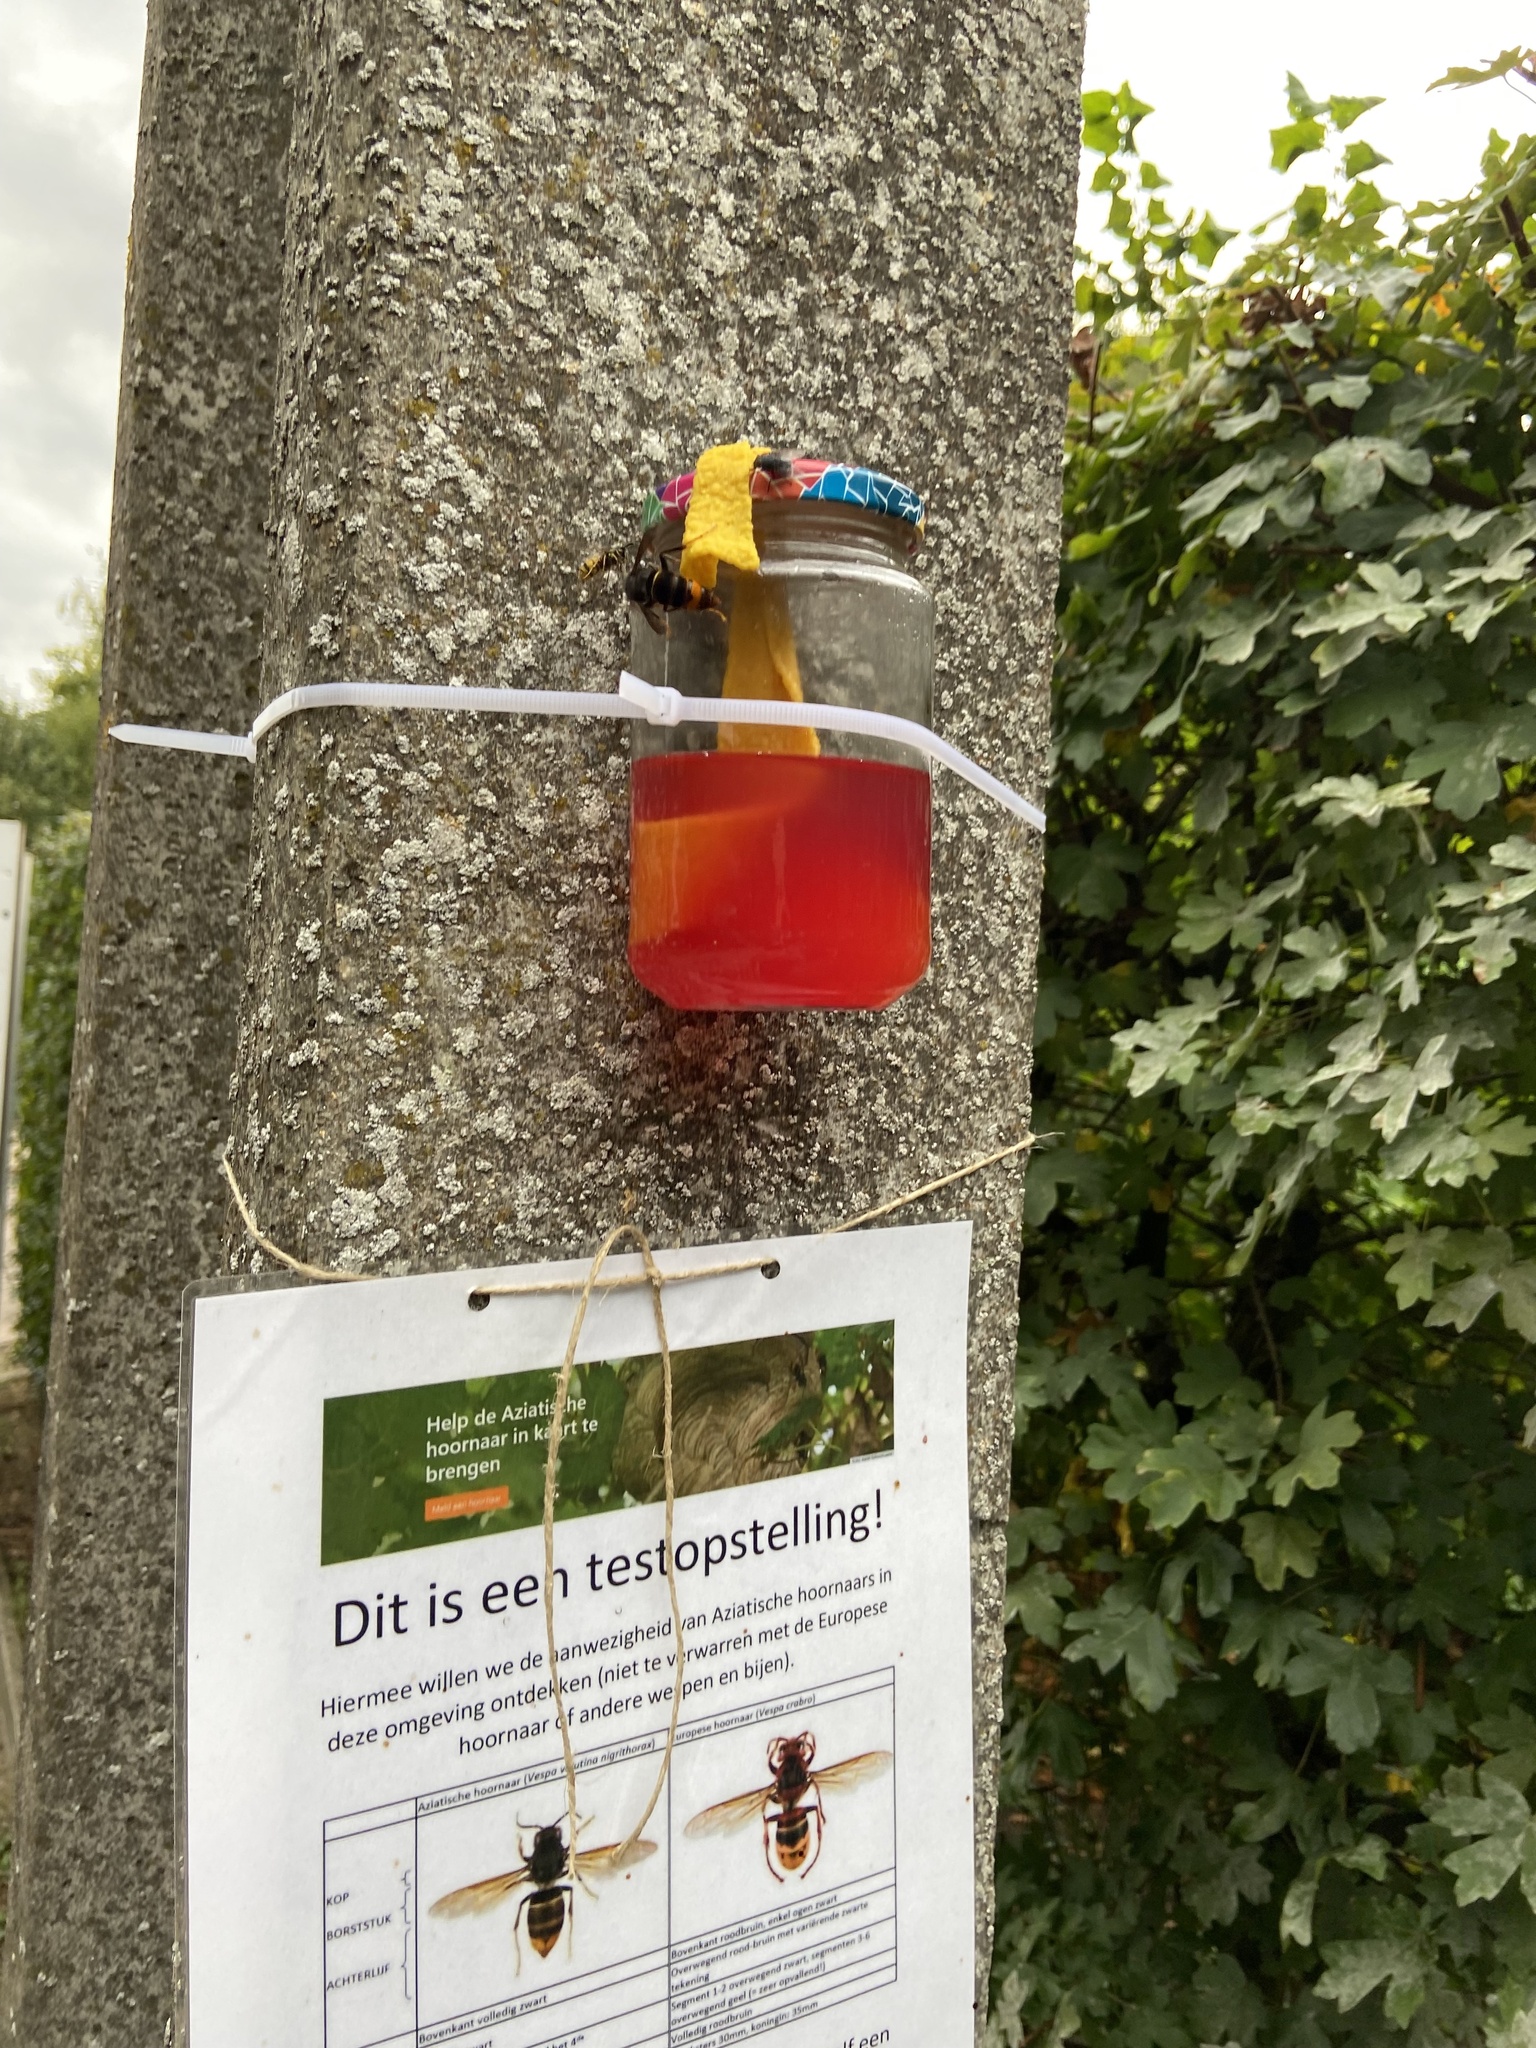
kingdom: Animalia
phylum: Arthropoda
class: Insecta
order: Hymenoptera
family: Vespidae
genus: Vespa
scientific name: Vespa velutina
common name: Asian hornet
